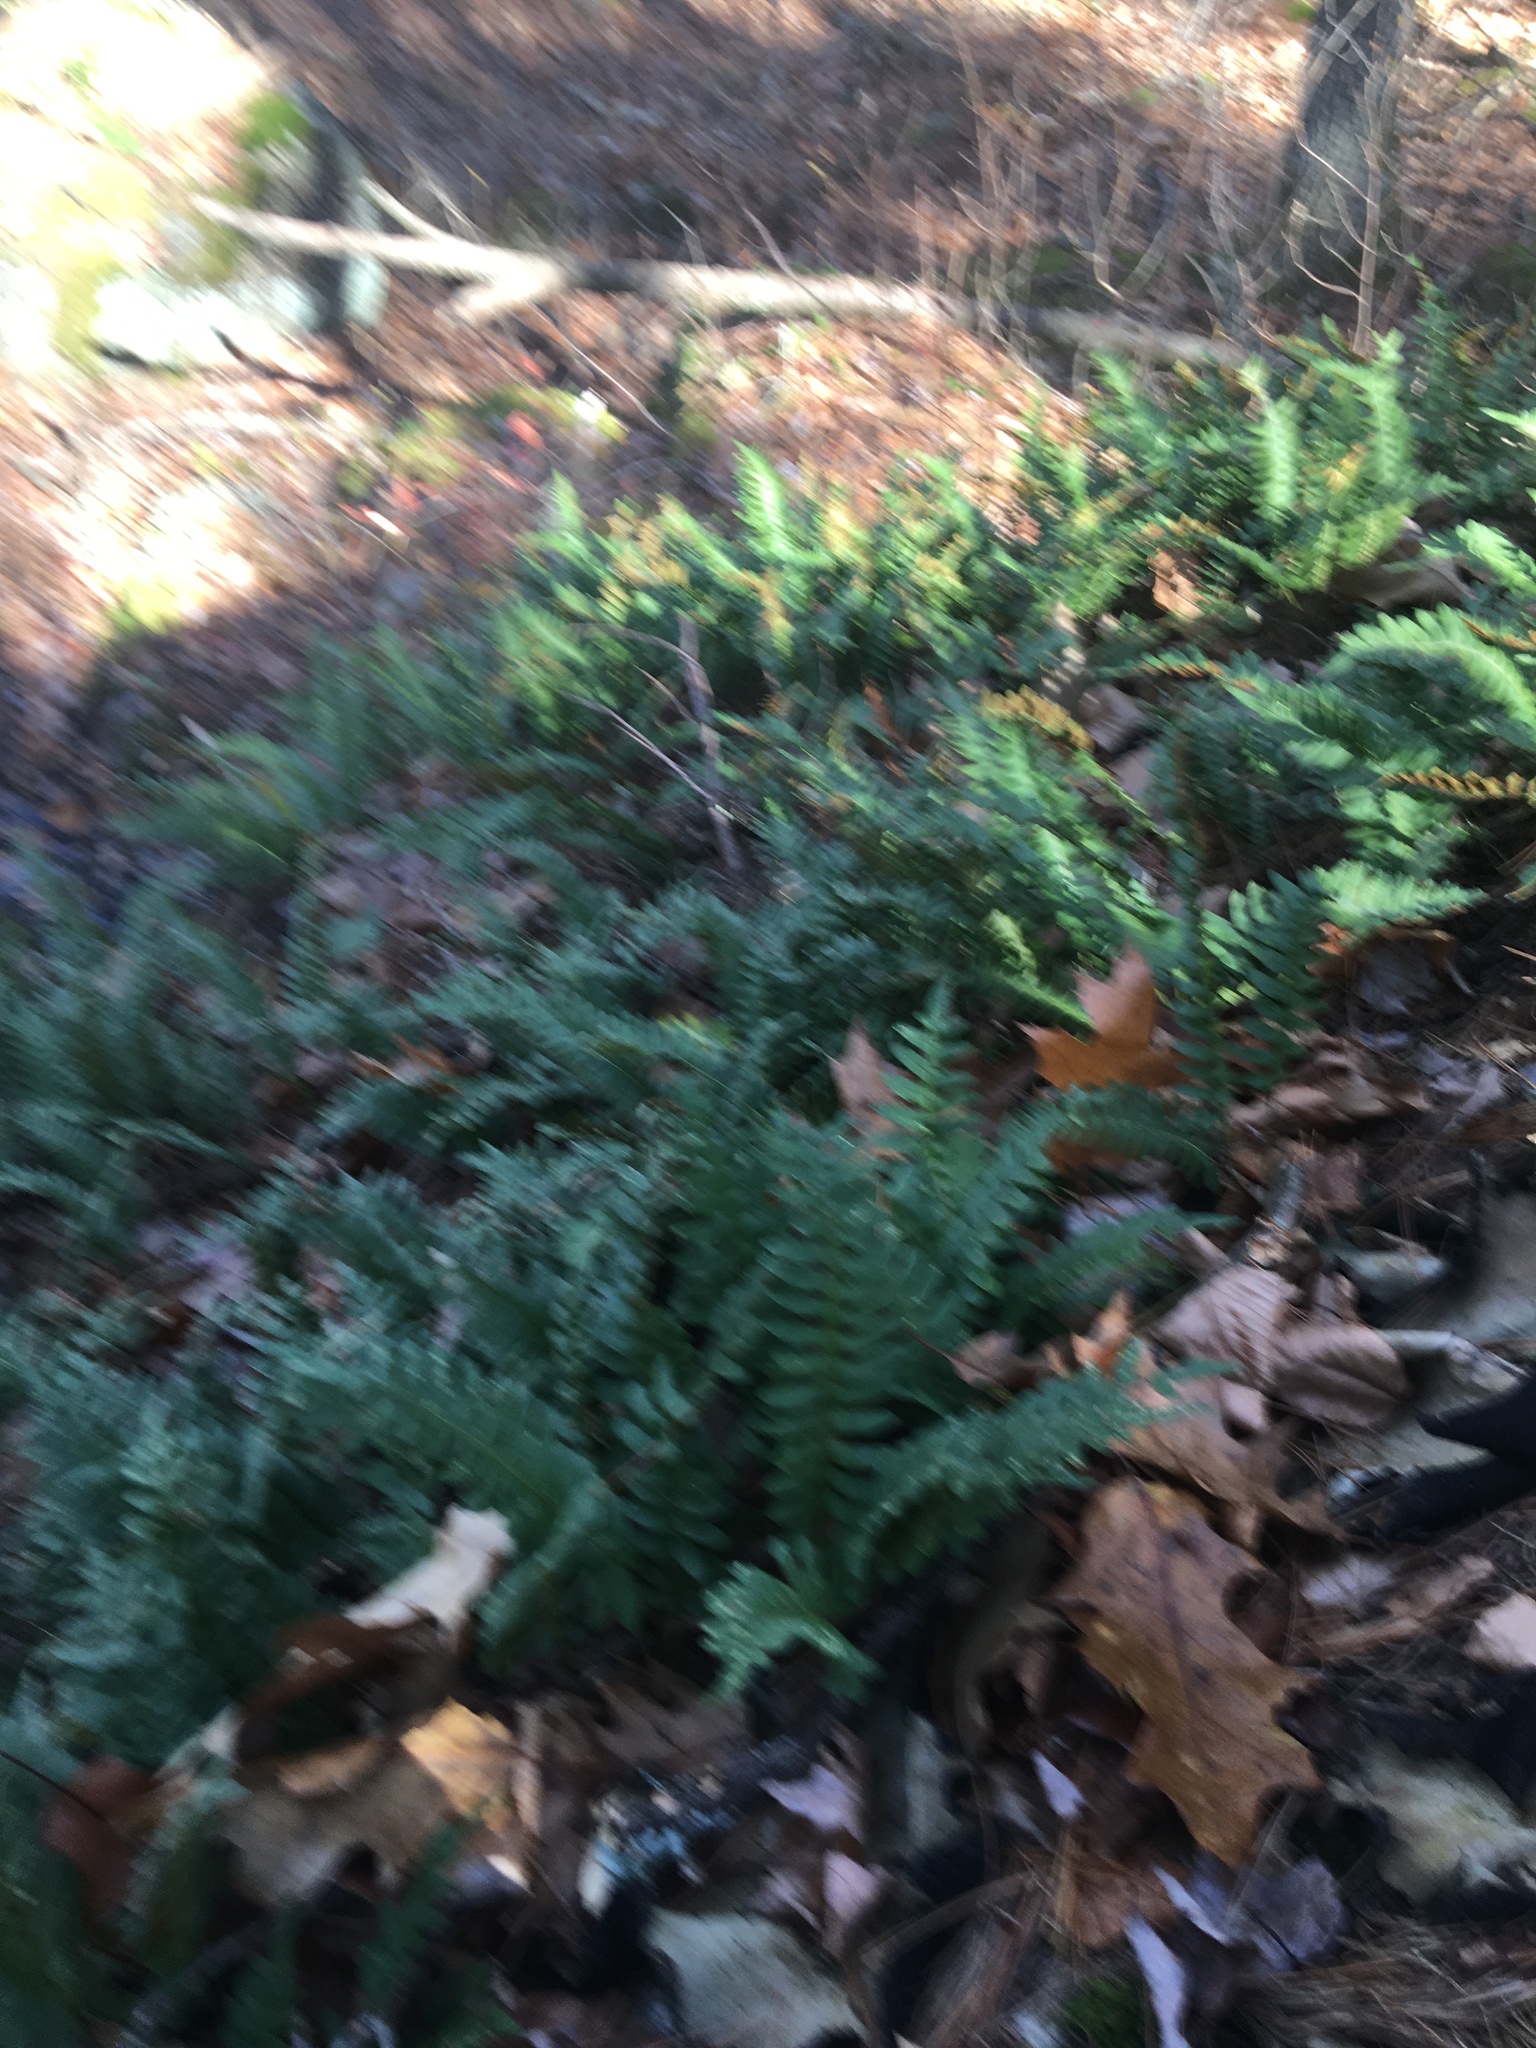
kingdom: Plantae
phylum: Tracheophyta
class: Polypodiopsida
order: Polypodiales
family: Polypodiaceae
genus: Polypodium
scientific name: Polypodium
